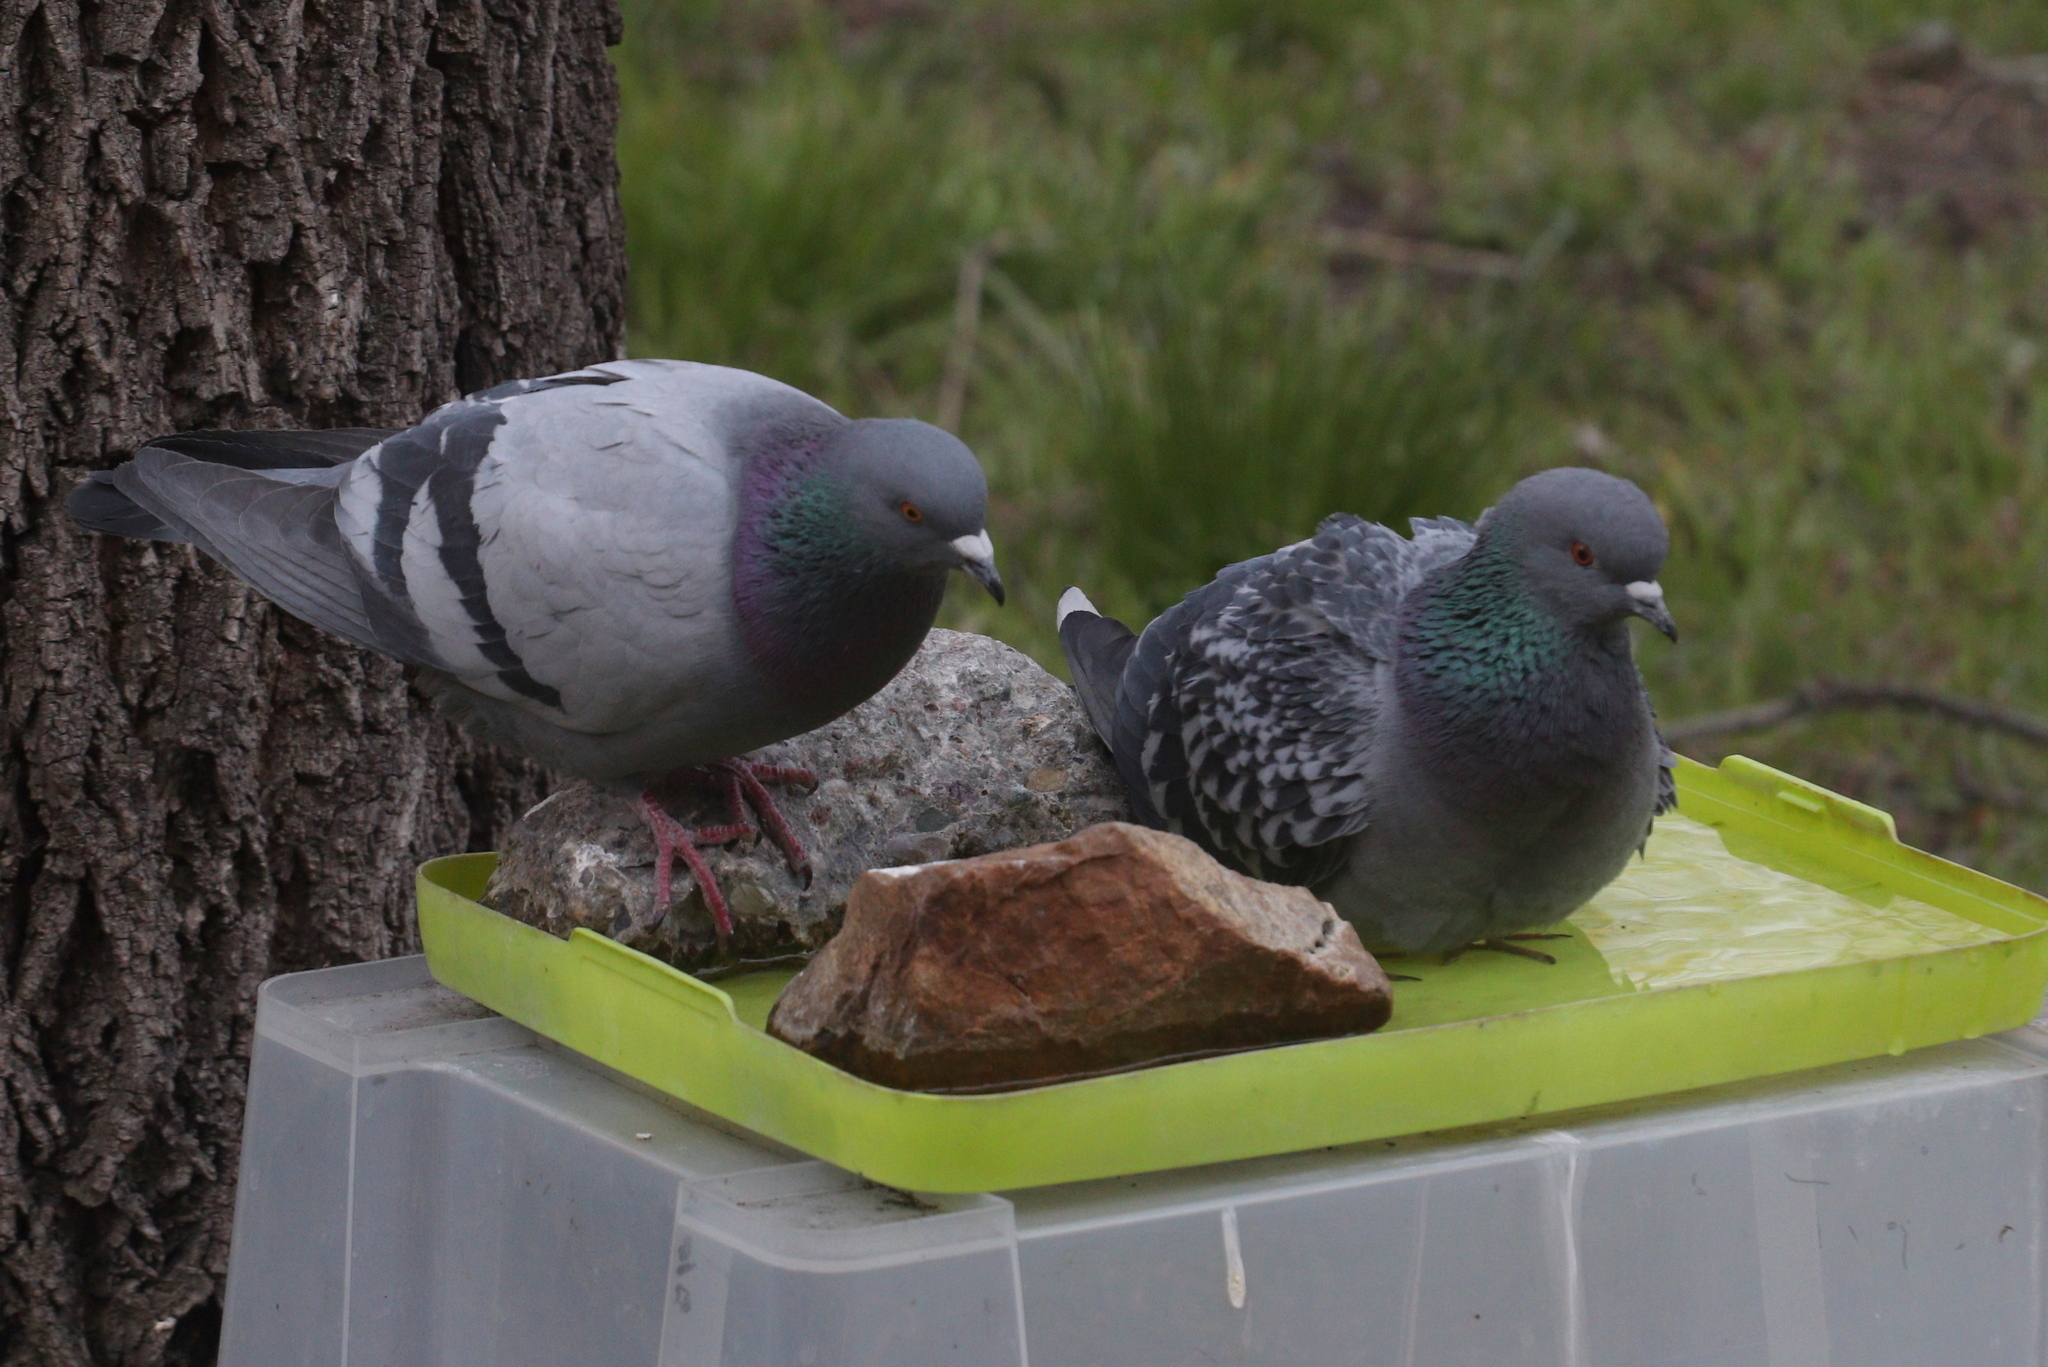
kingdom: Animalia
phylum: Chordata
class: Aves
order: Columbiformes
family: Columbidae
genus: Columba
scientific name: Columba livia
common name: Rock pigeon
